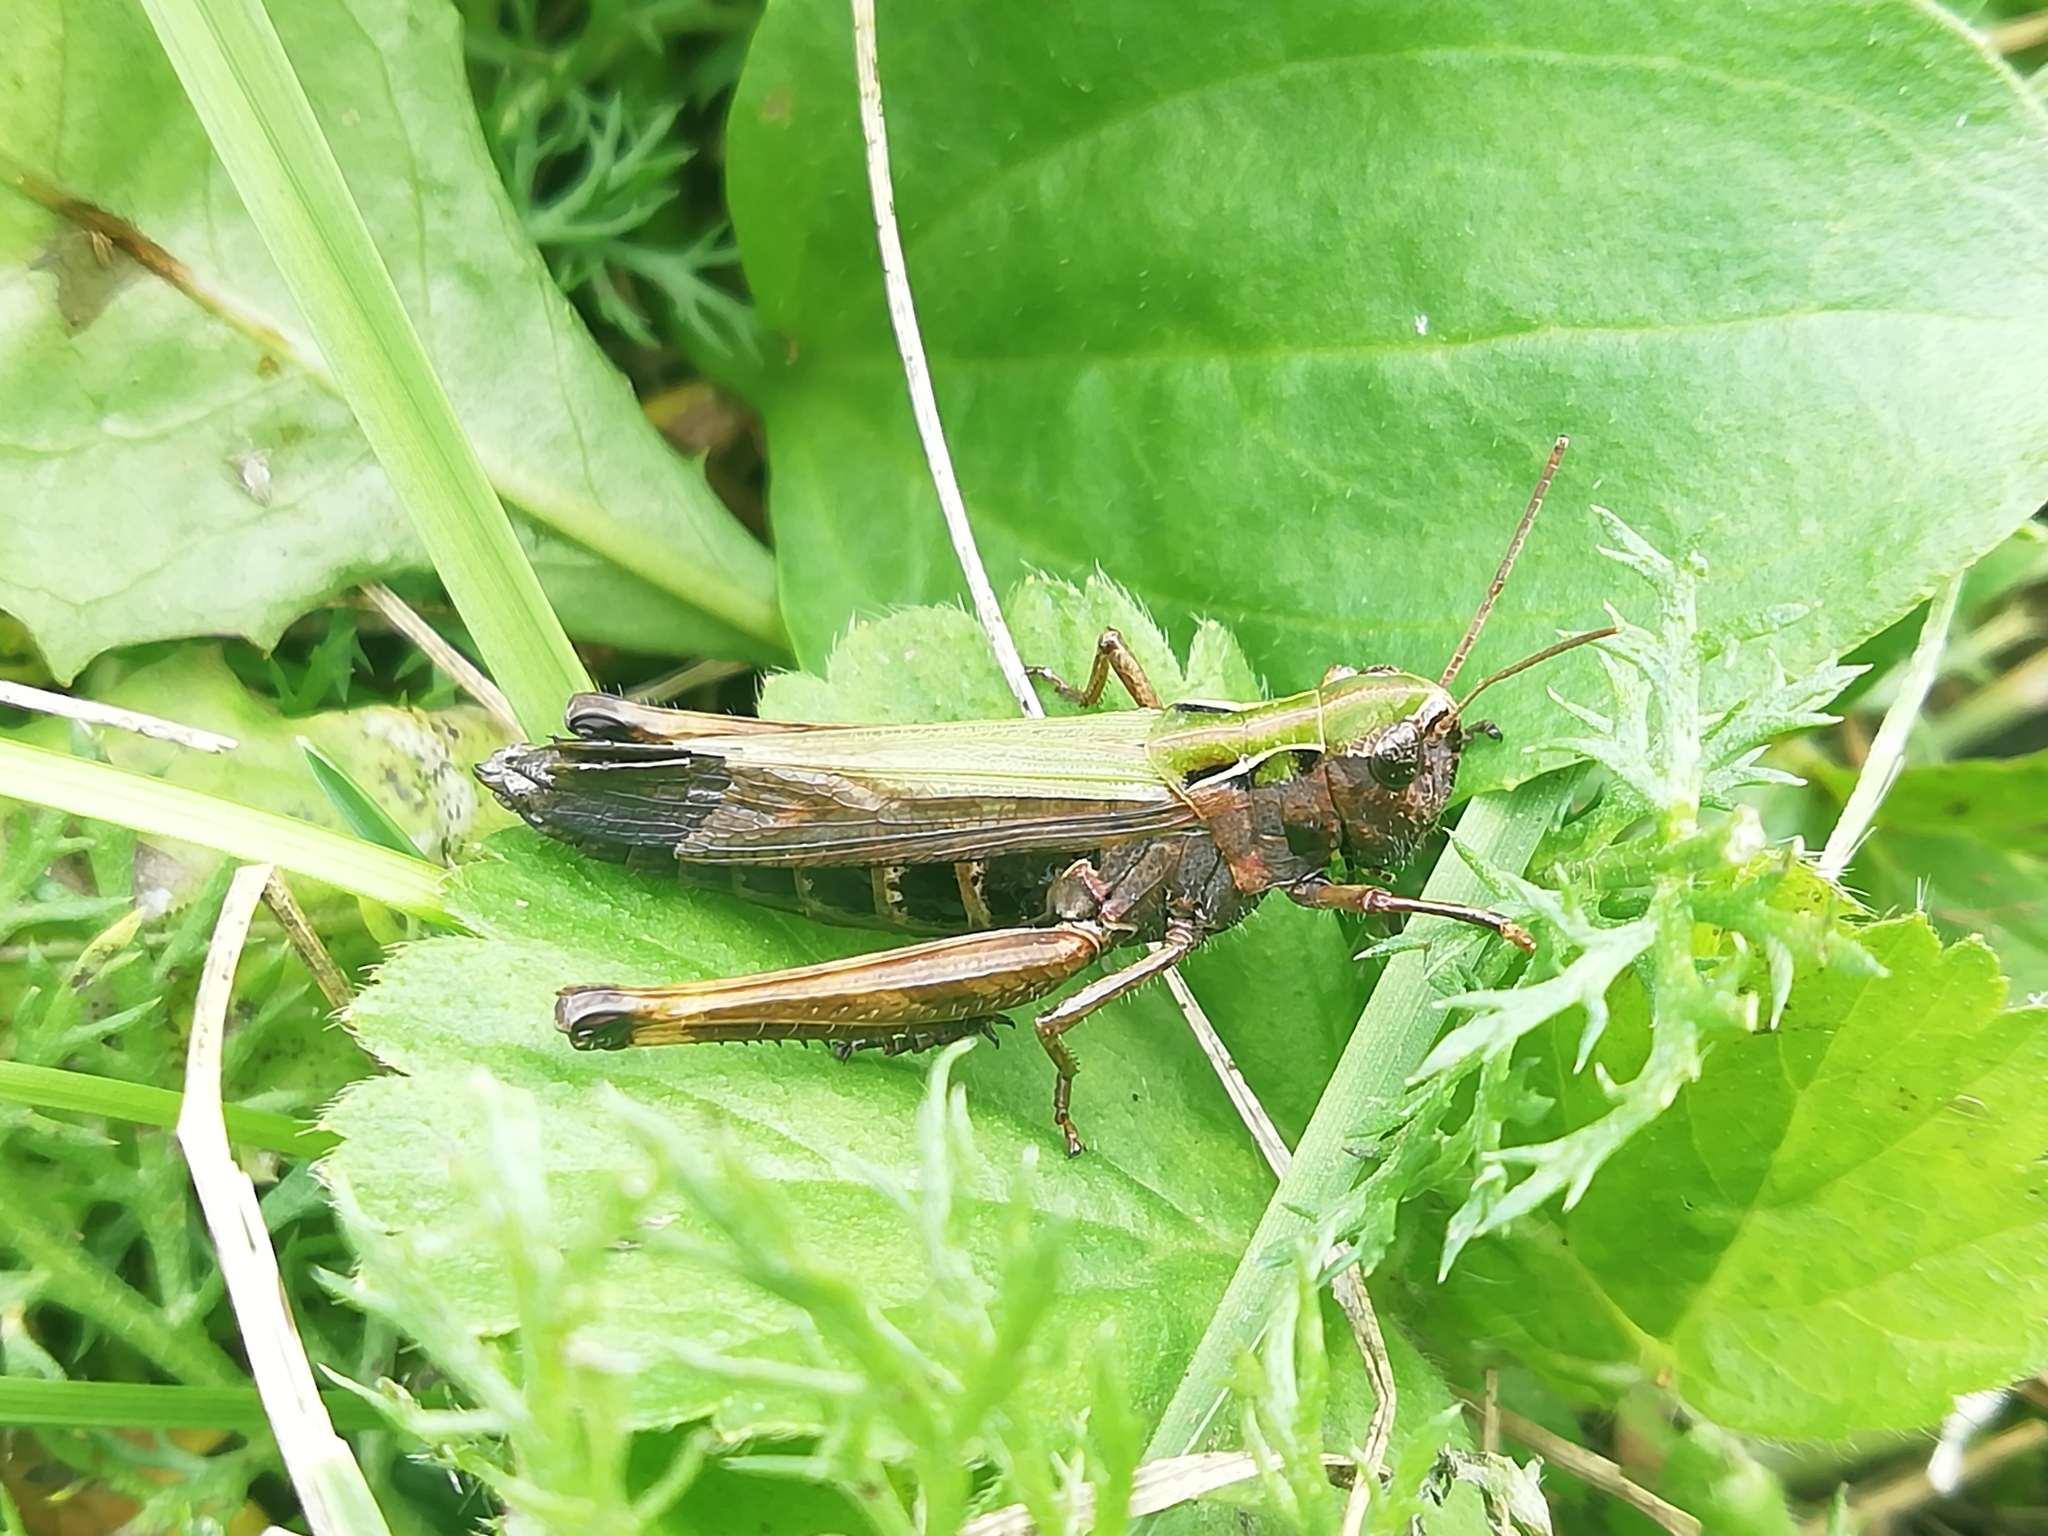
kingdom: Animalia
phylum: Arthropoda
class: Insecta
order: Orthoptera
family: Acrididae
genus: Omocestus
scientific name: Omocestus viridulus
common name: Common green grasshopper
